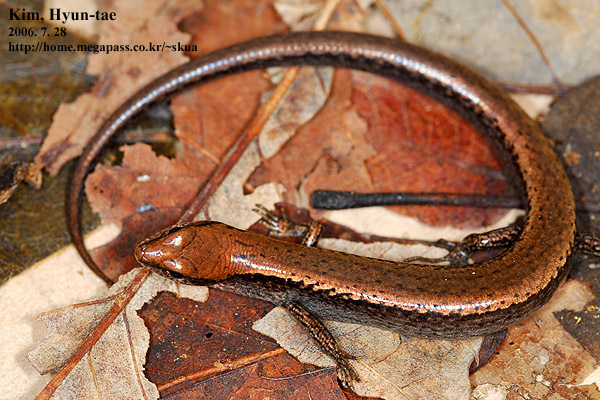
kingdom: Animalia
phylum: Chordata
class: Squamata
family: Scincidae
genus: Scincella
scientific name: Scincella vandenburghi
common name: Tsushima smooth skink
